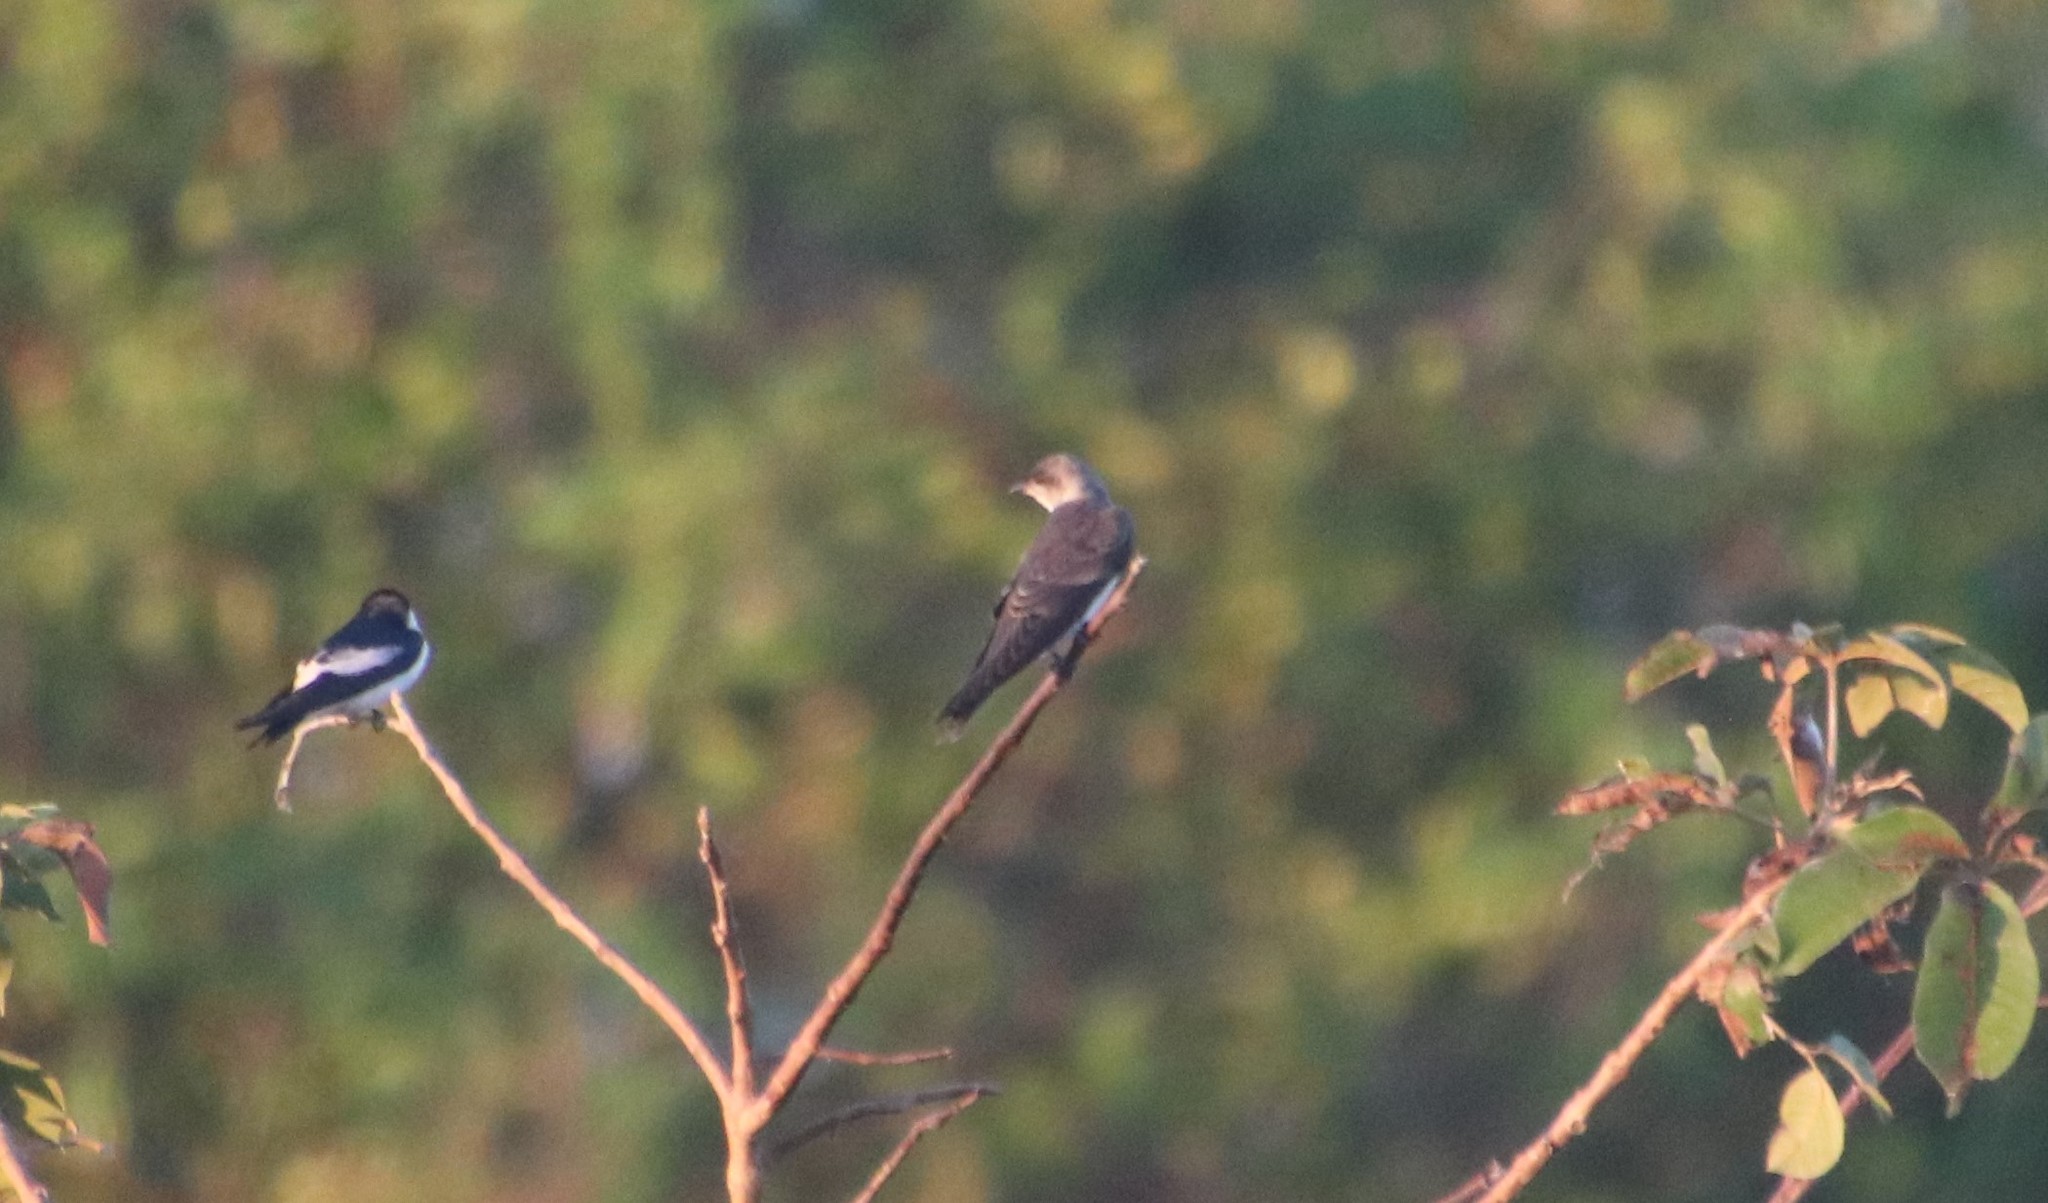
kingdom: Animalia
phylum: Chordata
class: Aves
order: Passeriformes
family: Hirundinidae
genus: Progne
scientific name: Progne tapera
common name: Brown-chested martin
